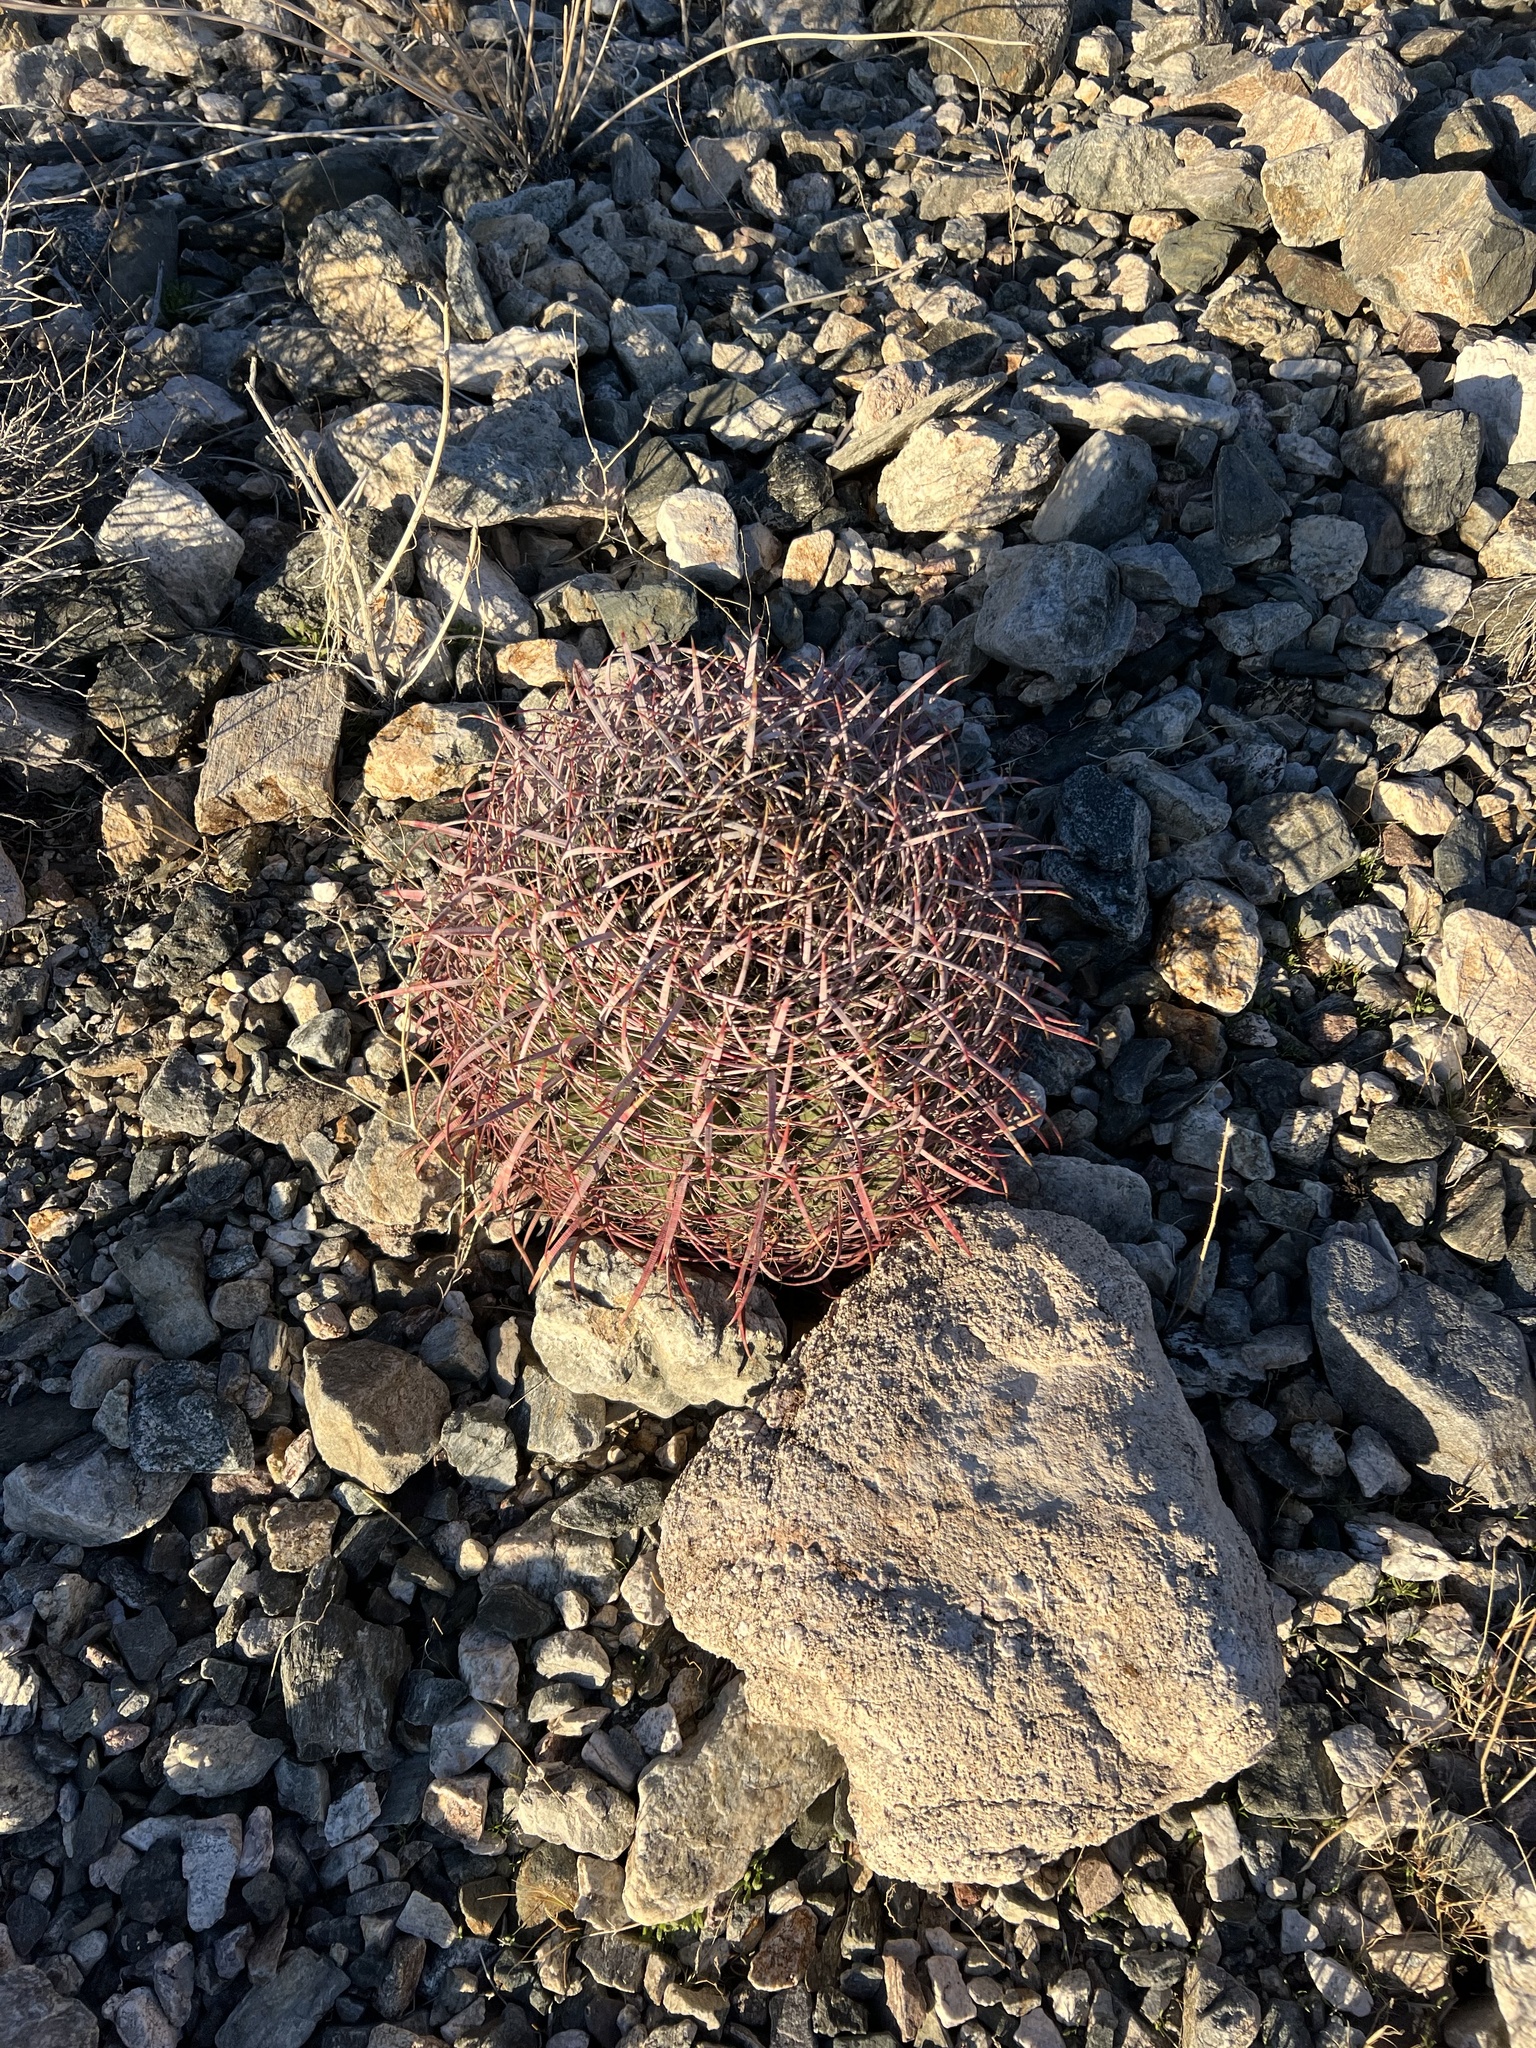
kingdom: Plantae
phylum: Tracheophyta
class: Magnoliopsida
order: Caryophyllales
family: Cactaceae
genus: Ferocactus
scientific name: Ferocactus cylindraceus
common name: California barrel cactus
